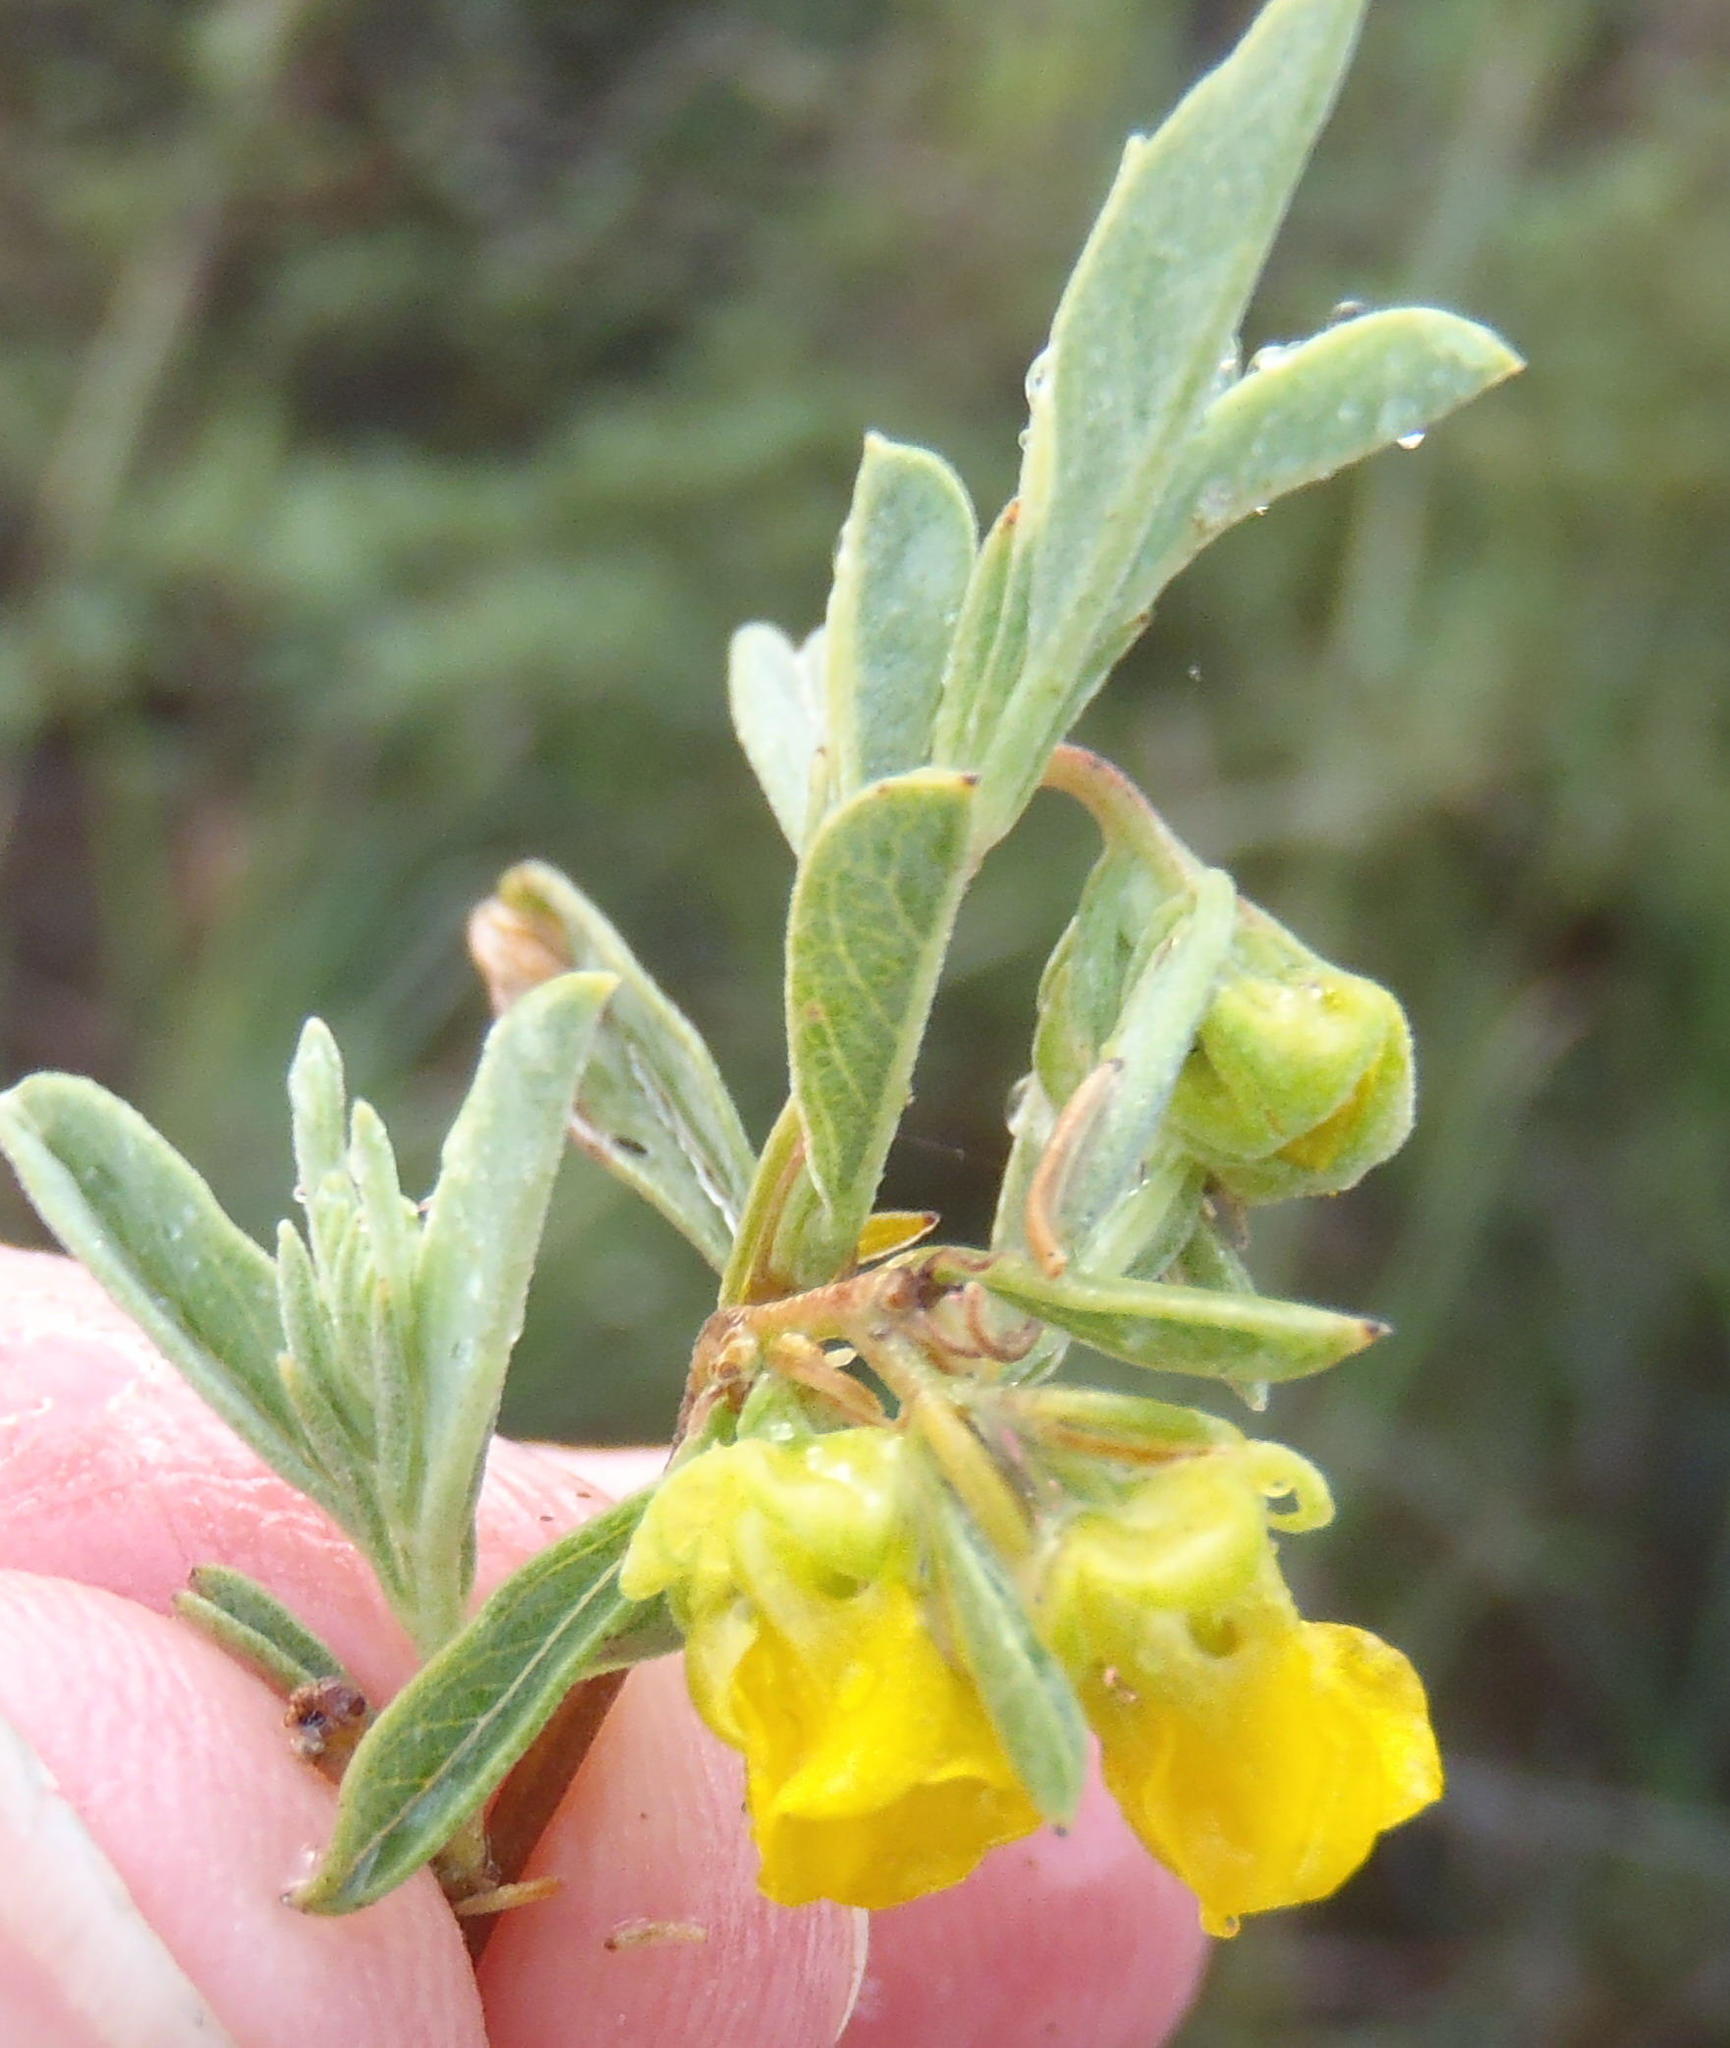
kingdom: Plantae
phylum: Tracheophyta
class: Magnoliopsida
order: Malvales
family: Malvaceae
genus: Hermannia
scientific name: Hermannia lavandulifolia
